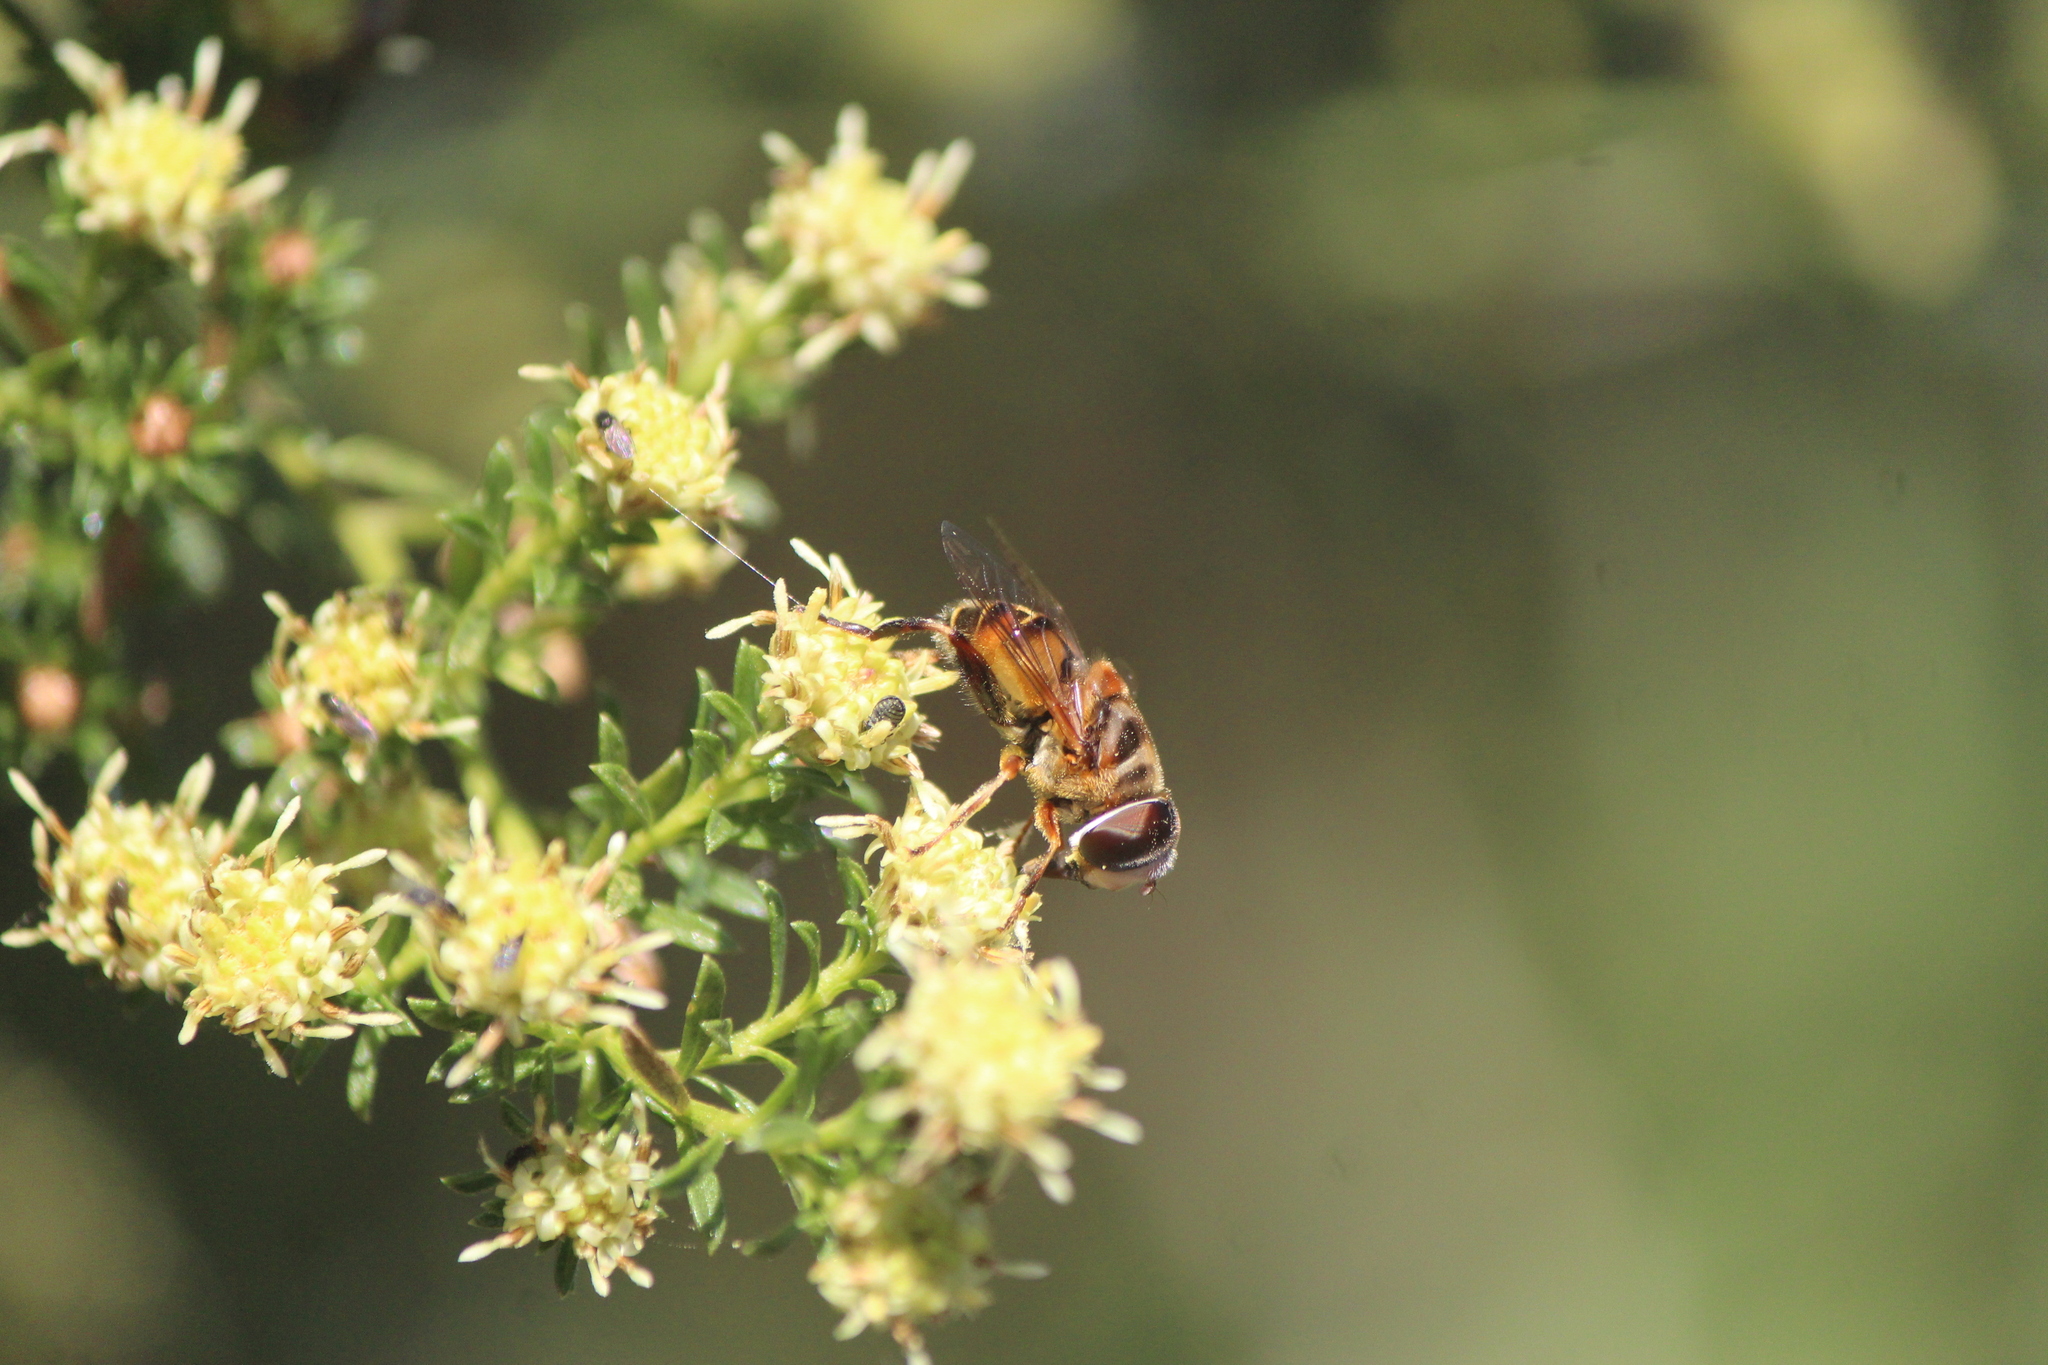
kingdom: Animalia
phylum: Arthropoda
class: Insecta
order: Diptera
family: Syrphidae
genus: Palpada
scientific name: Palpada vinetorum
